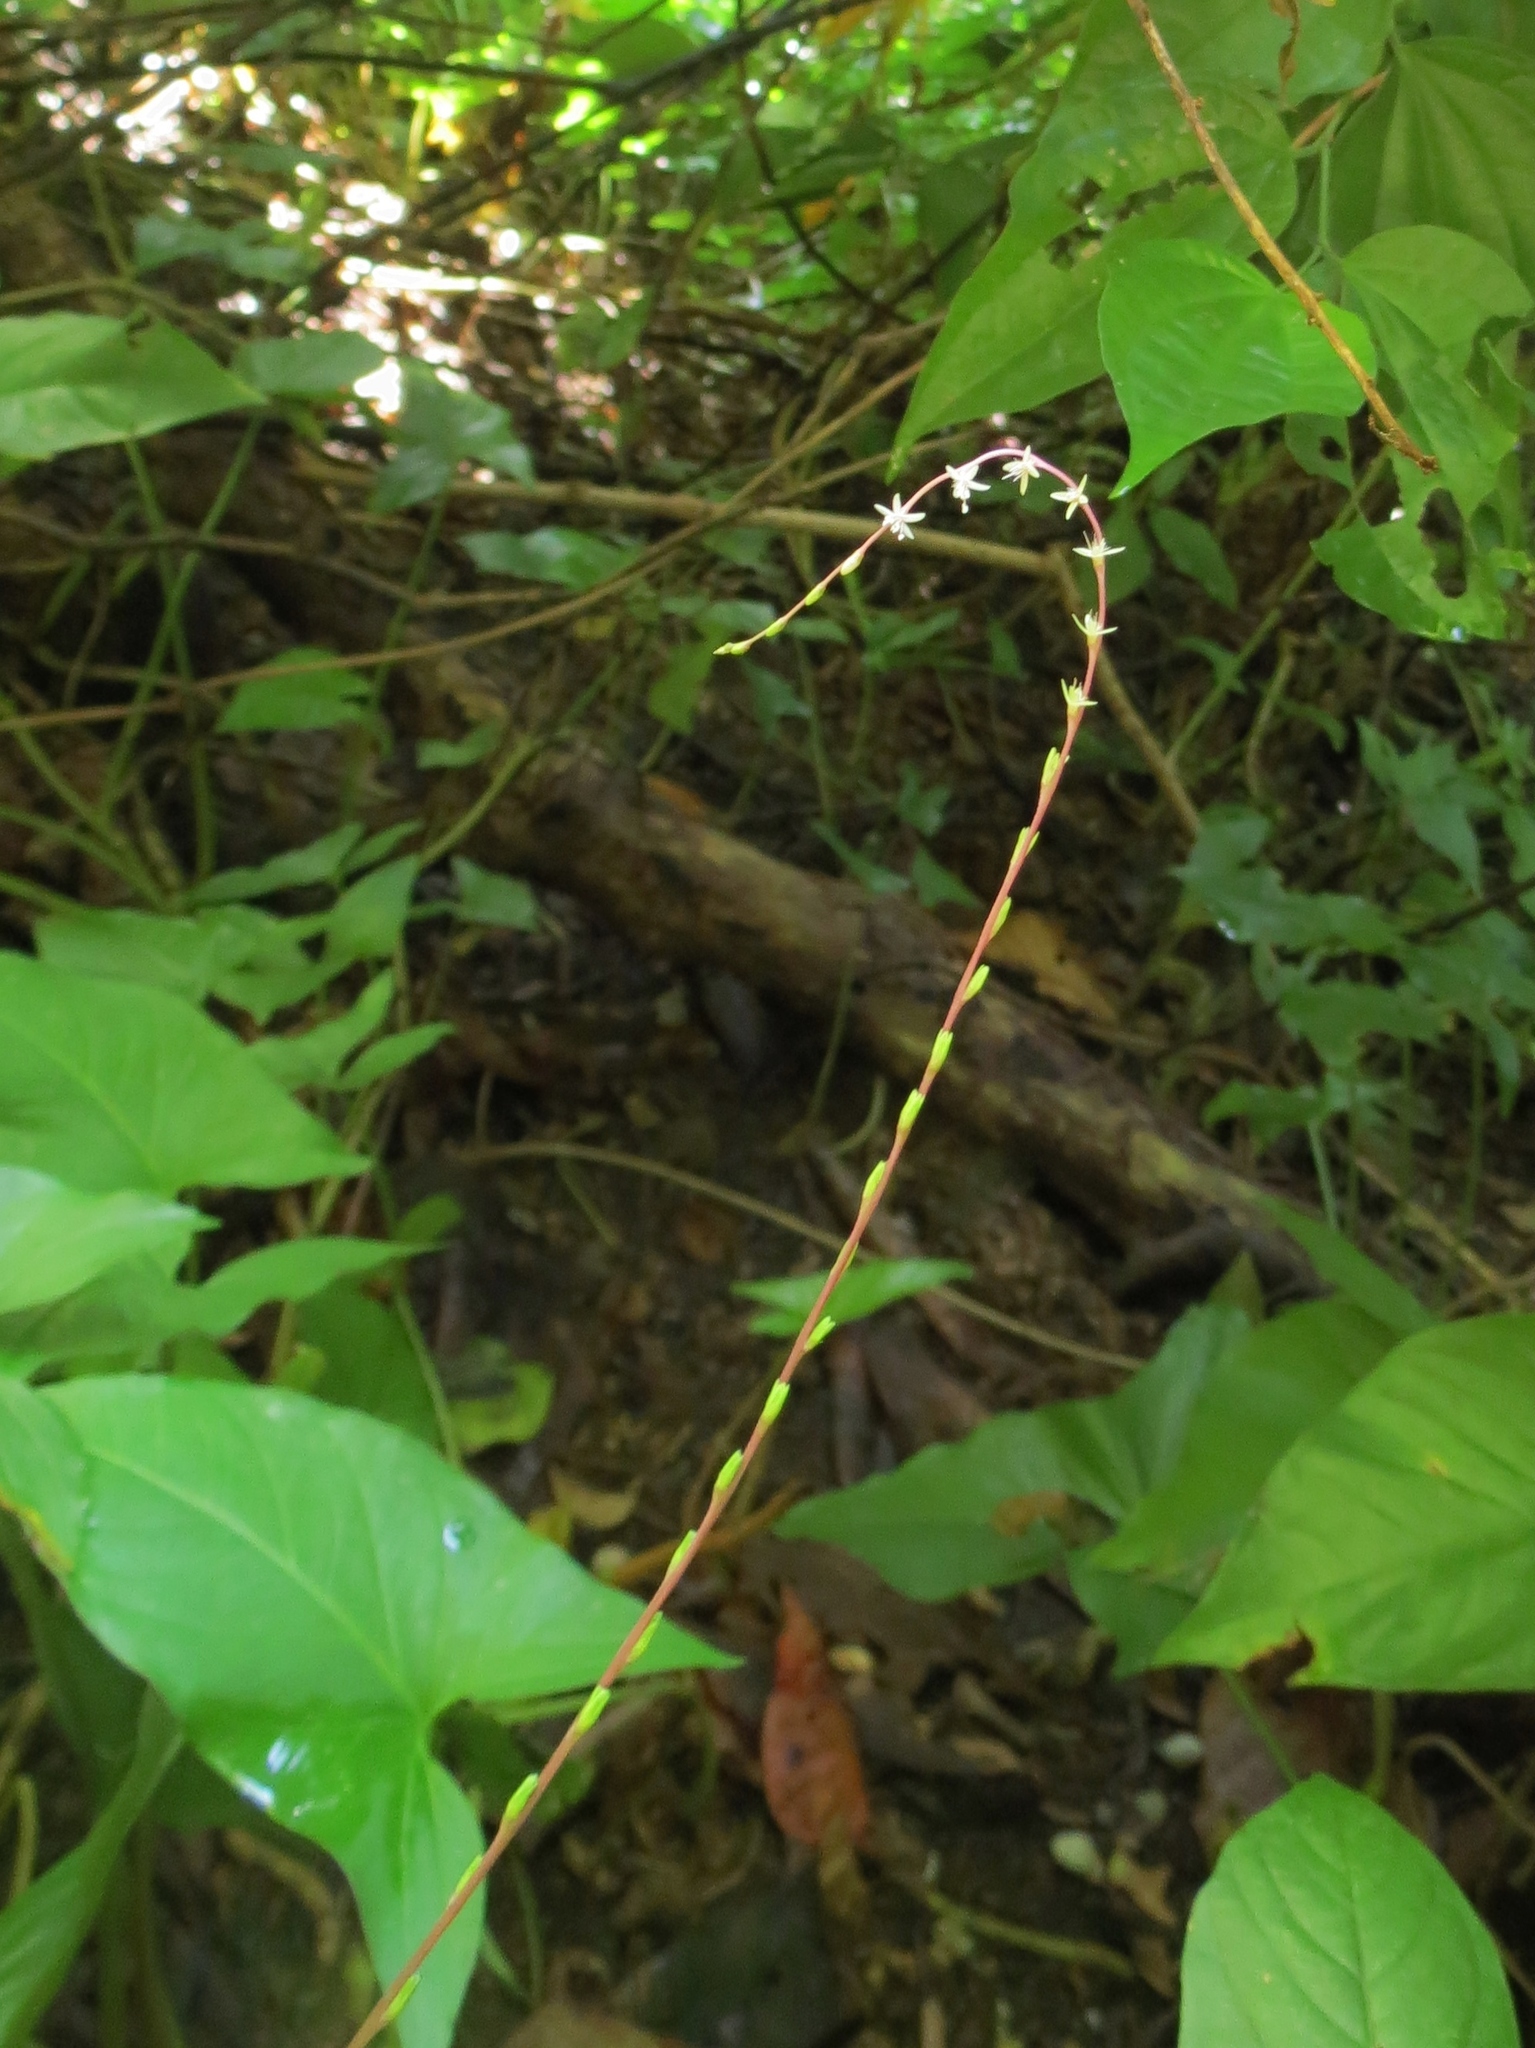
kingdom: Plantae
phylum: Tracheophyta
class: Magnoliopsida
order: Caryophyllales
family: Phytolaccaceae
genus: Petiveria
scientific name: Petiveria alliacea
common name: Garlicweed
